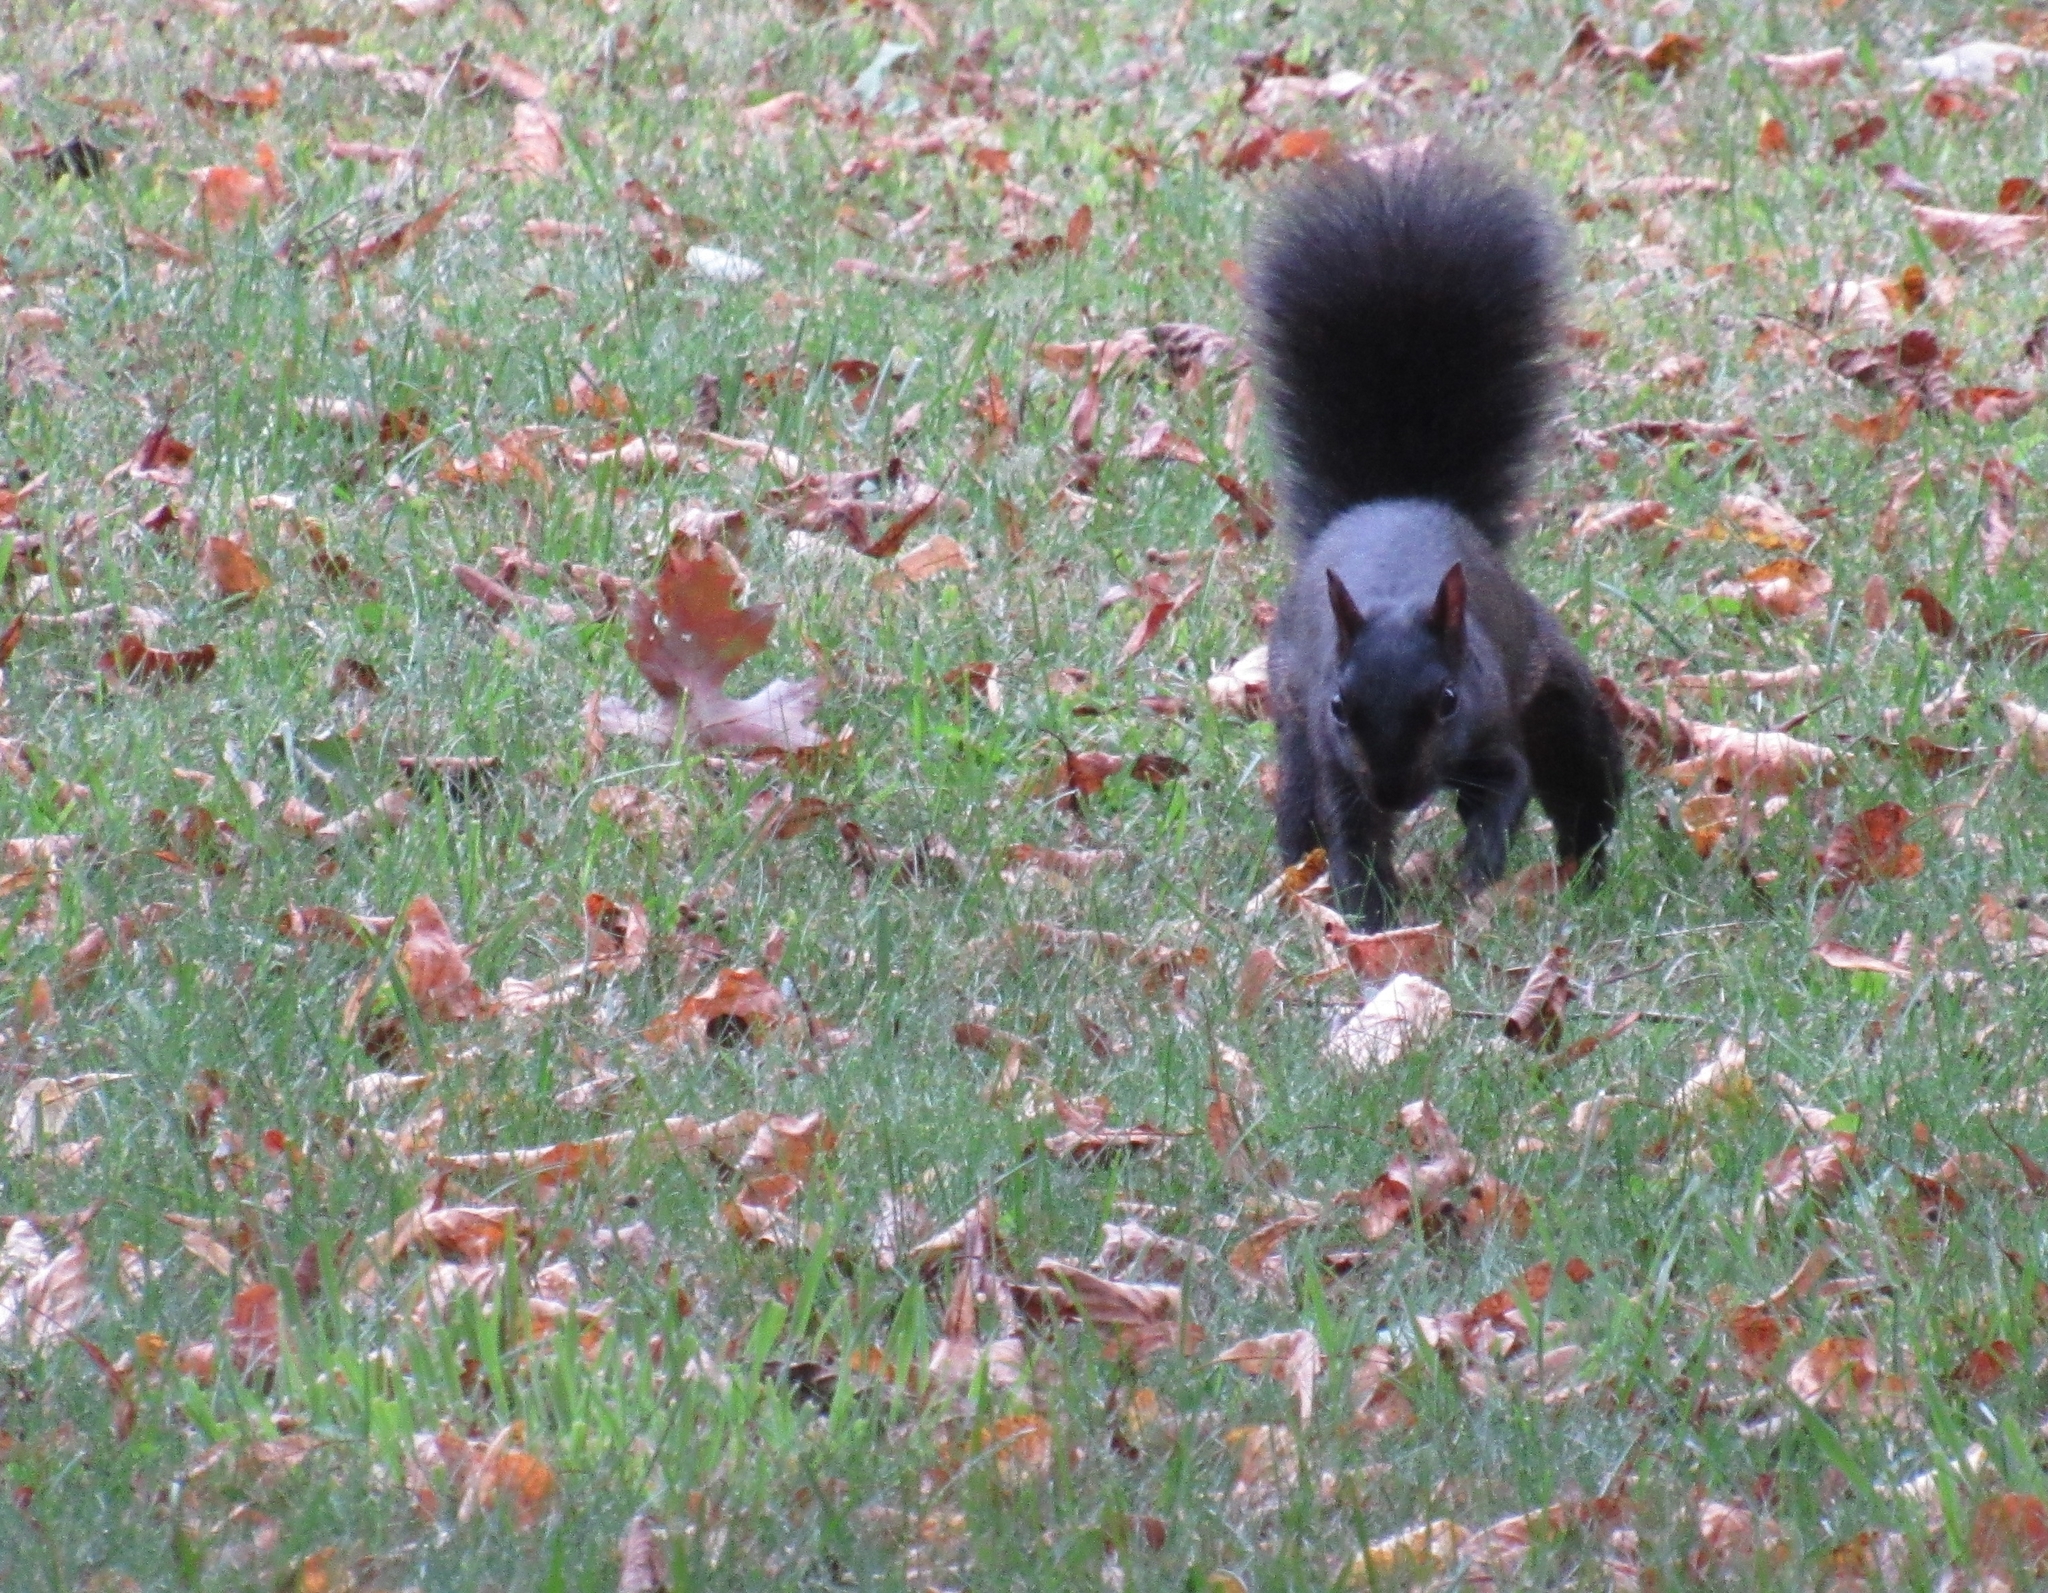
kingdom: Animalia
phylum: Chordata
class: Mammalia
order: Rodentia
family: Sciuridae
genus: Sciurus
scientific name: Sciurus carolinensis
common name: Eastern gray squirrel
